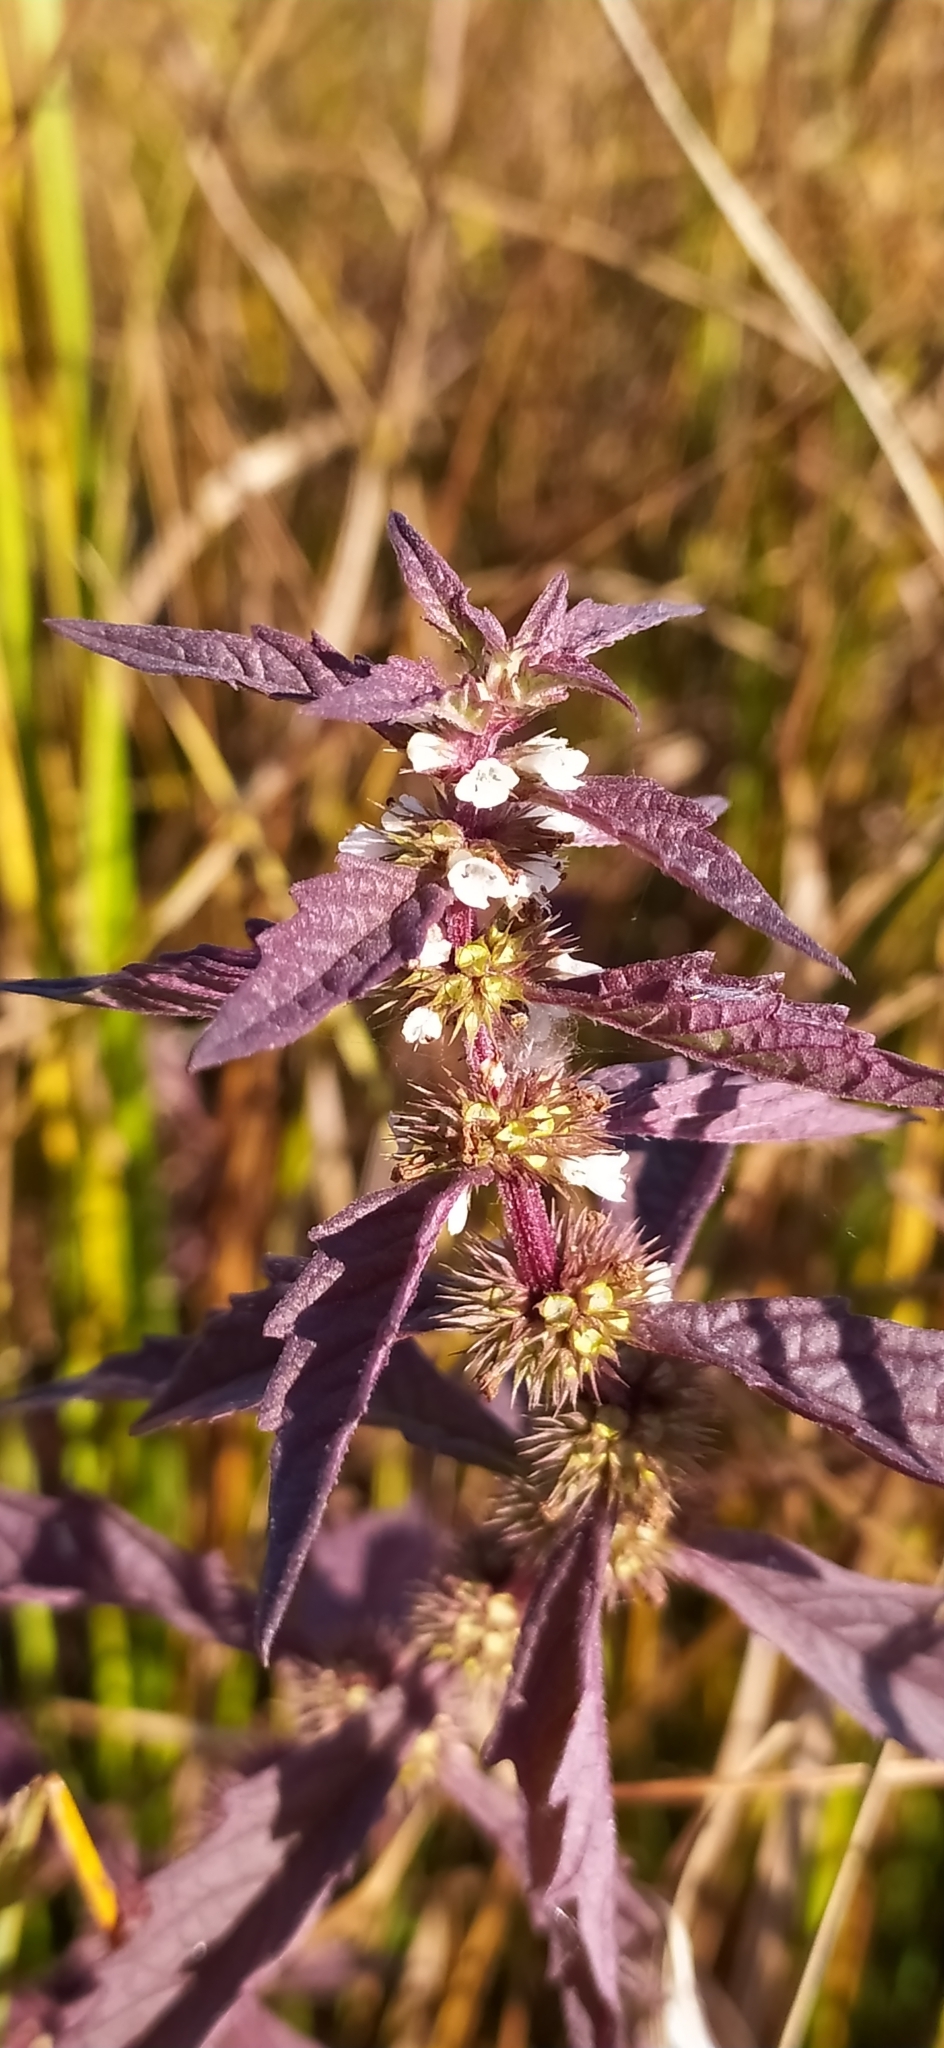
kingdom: Plantae
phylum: Tracheophyta
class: Magnoliopsida
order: Lamiales
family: Lamiaceae
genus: Lycopus
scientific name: Lycopus europaeus
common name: European bugleweed
